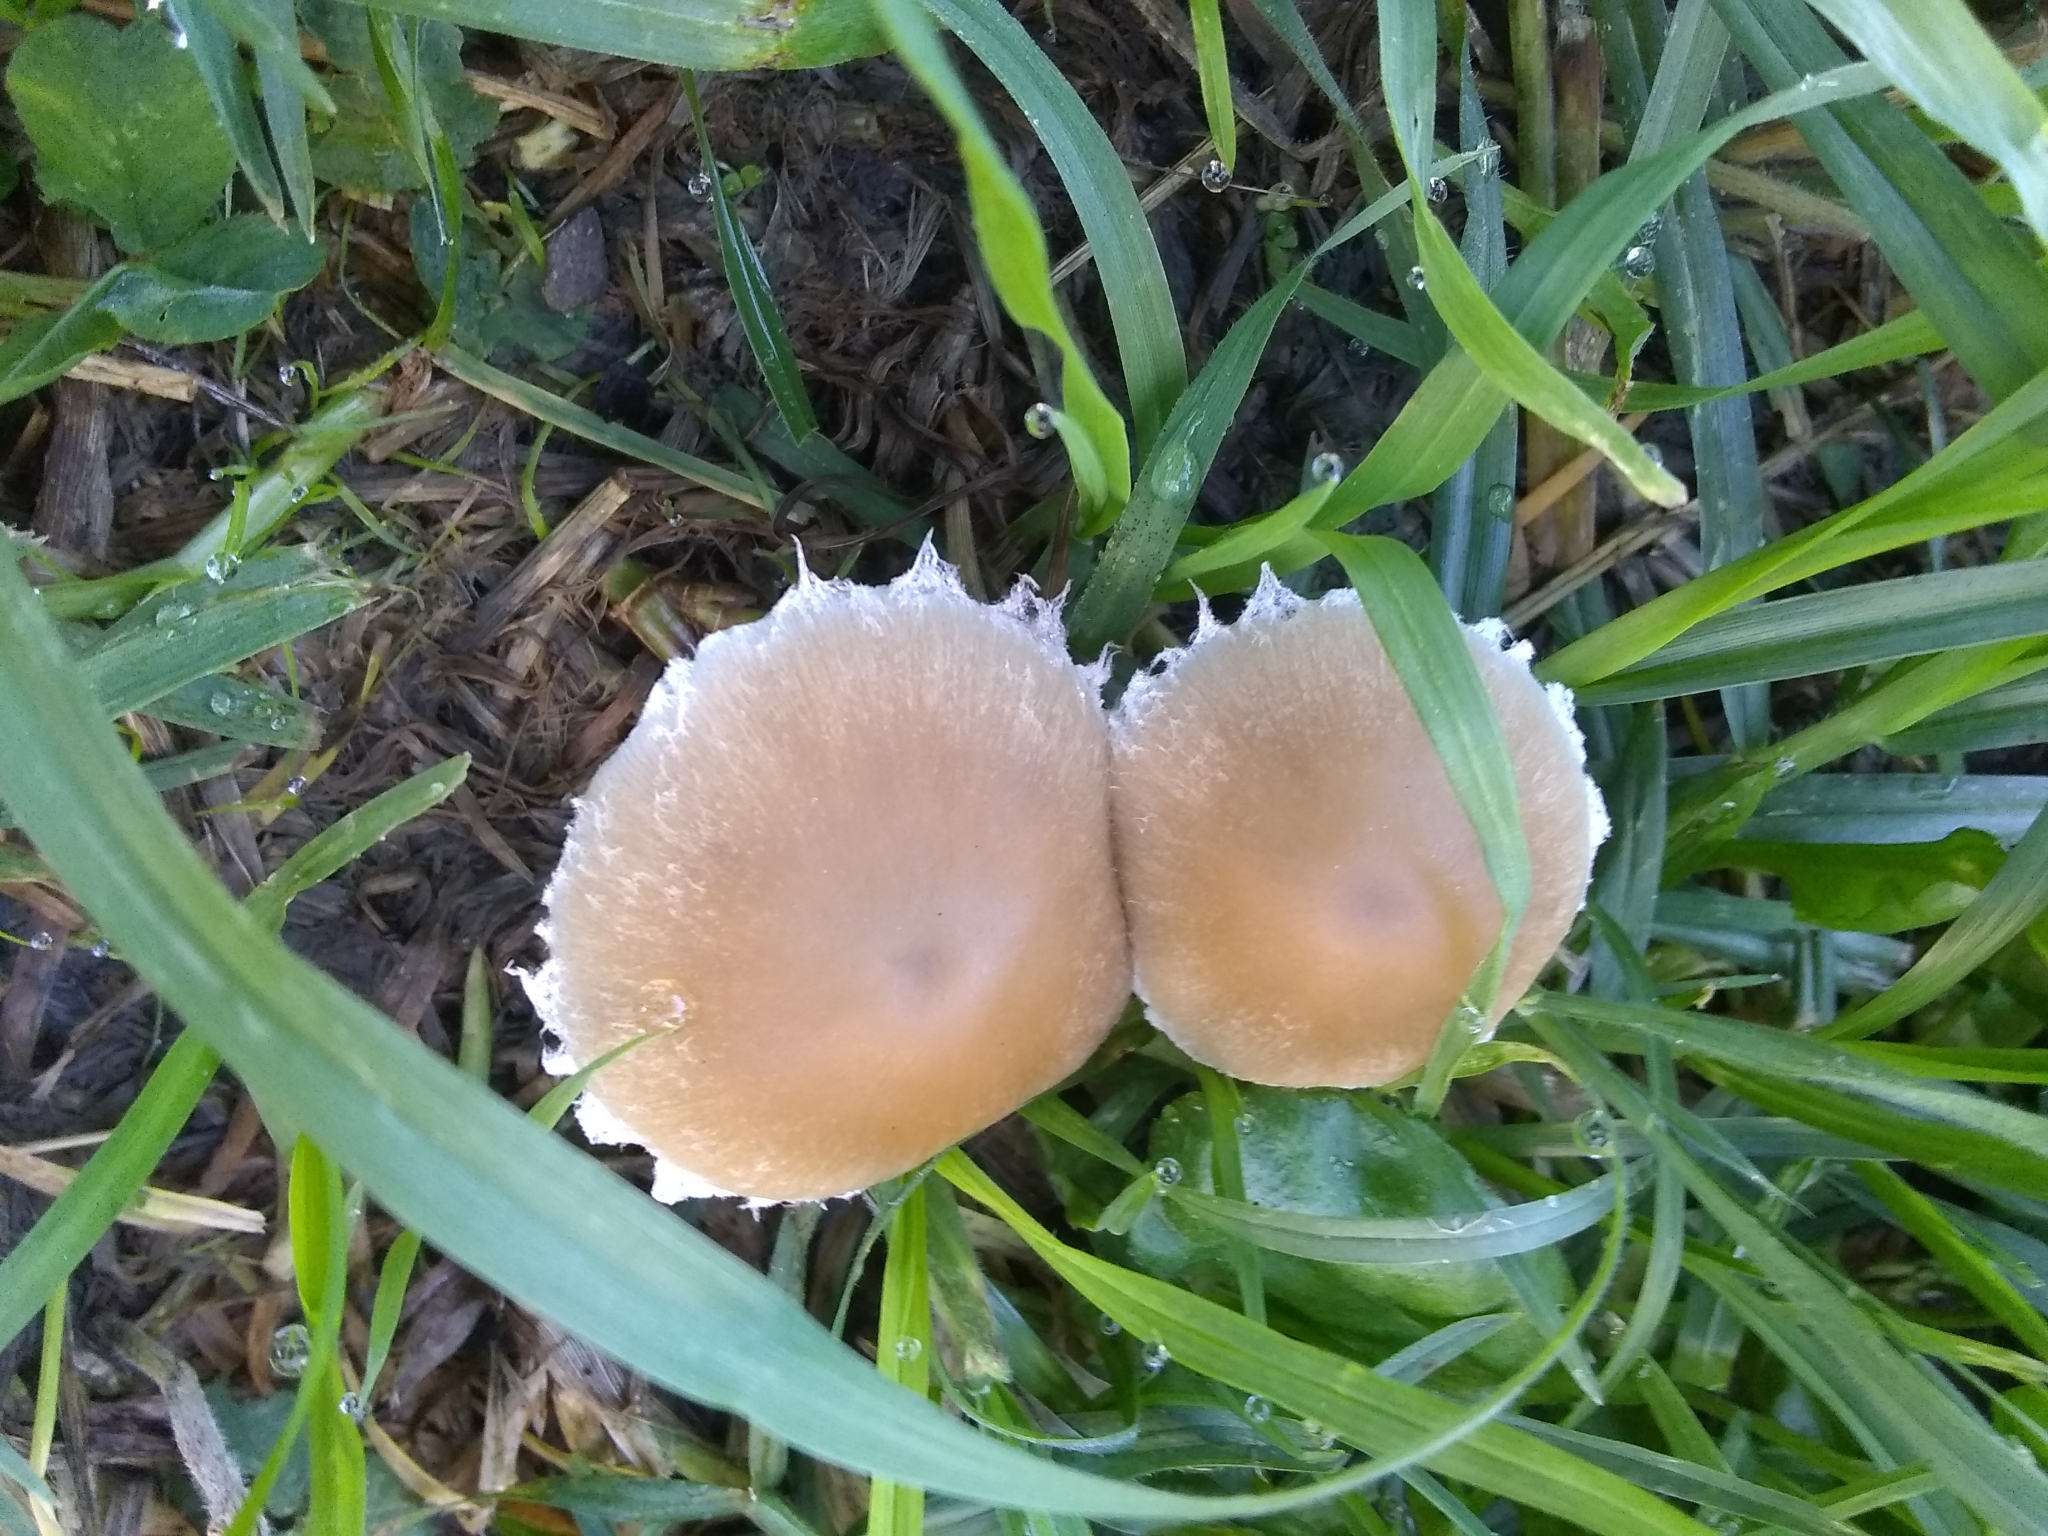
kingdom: Fungi
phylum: Basidiomycota
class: Agaricomycetes
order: Agaricales
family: Psathyrellaceae
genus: Candolleomyces
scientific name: Candolleomyces candolleanus
